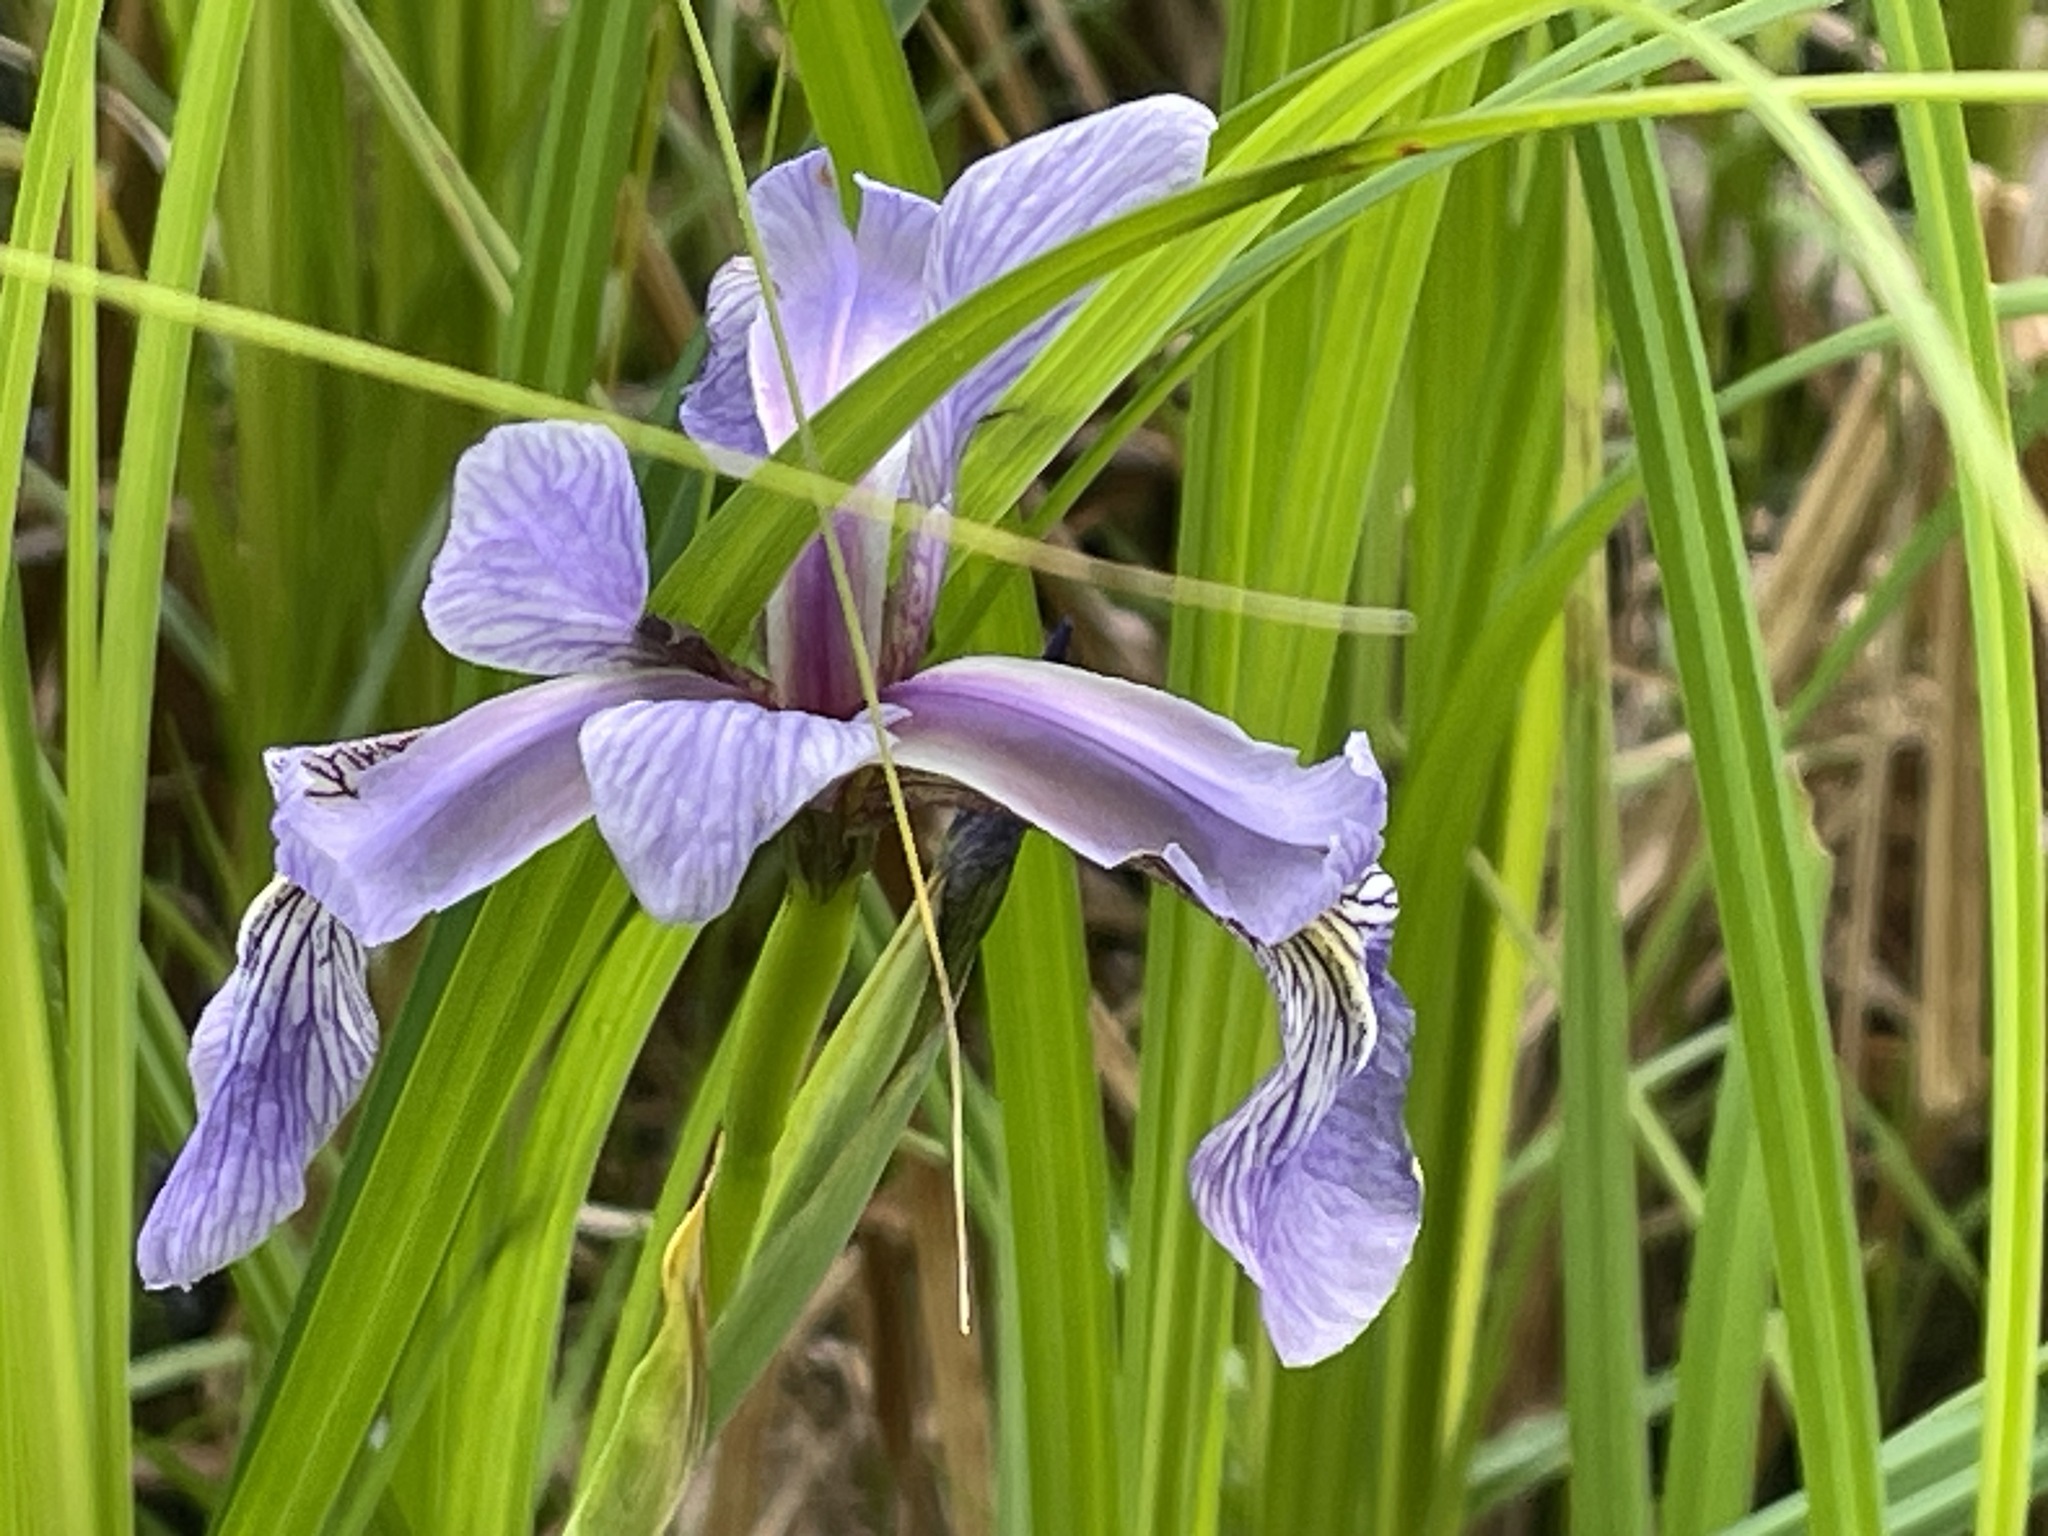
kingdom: Plantae
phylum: Tracheophyta
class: Liliopsida
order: Asparagales
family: Iridaceae
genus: Iris
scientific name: Iris versicolor
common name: Purple iris
